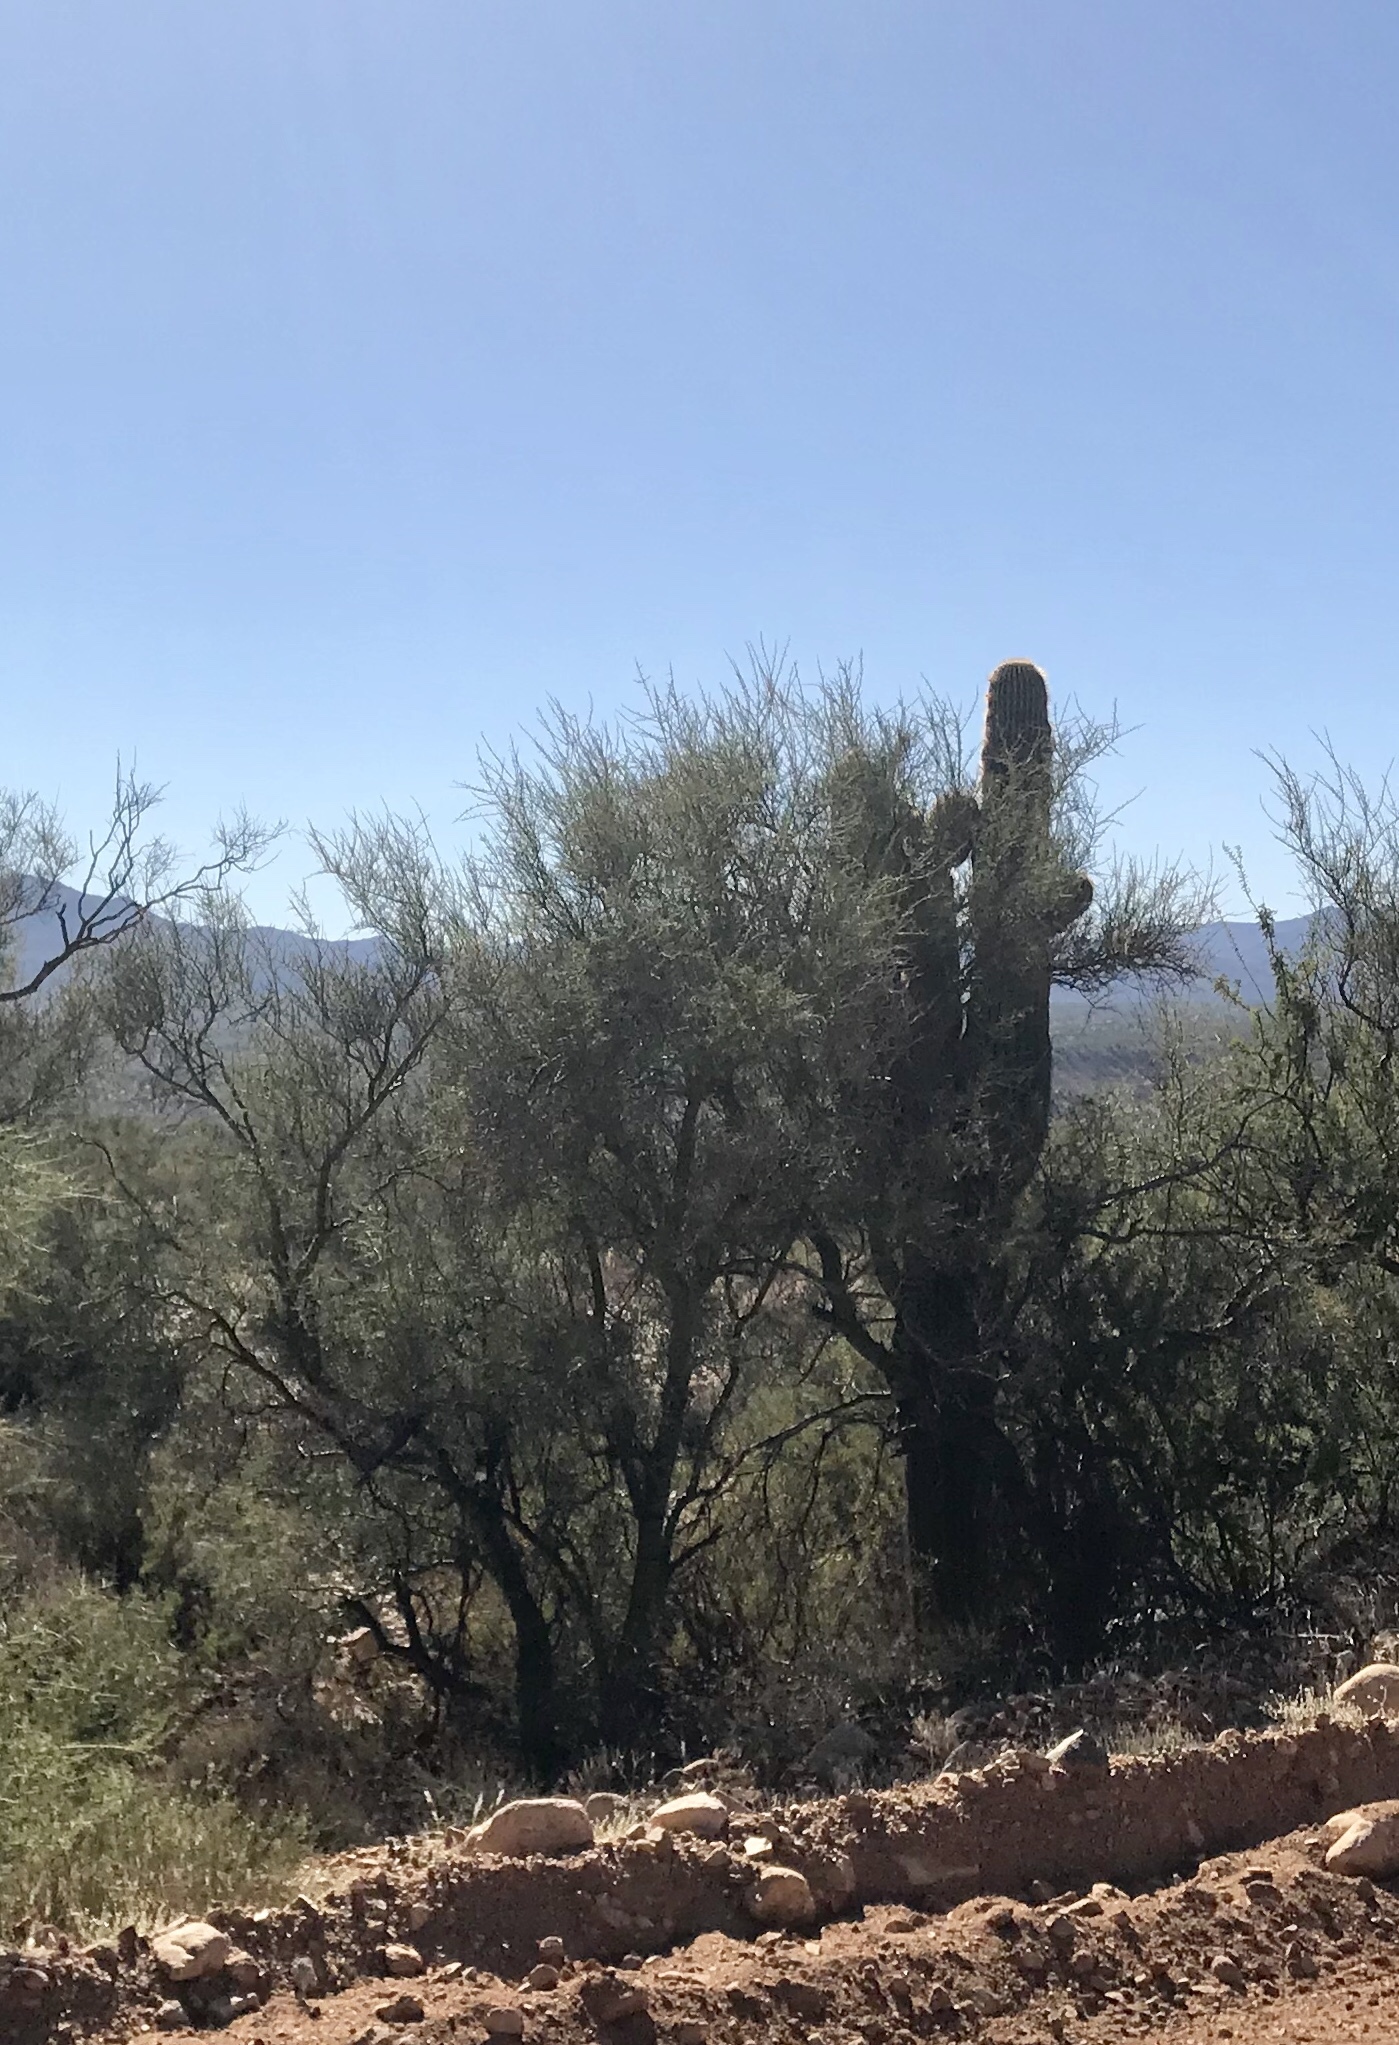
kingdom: Plantae
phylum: Tracheophyta
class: Magnoliopsida
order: Celastrales
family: Celastraceae
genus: Canotia
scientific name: Canotia holacantha
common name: Crucifixion thorns
